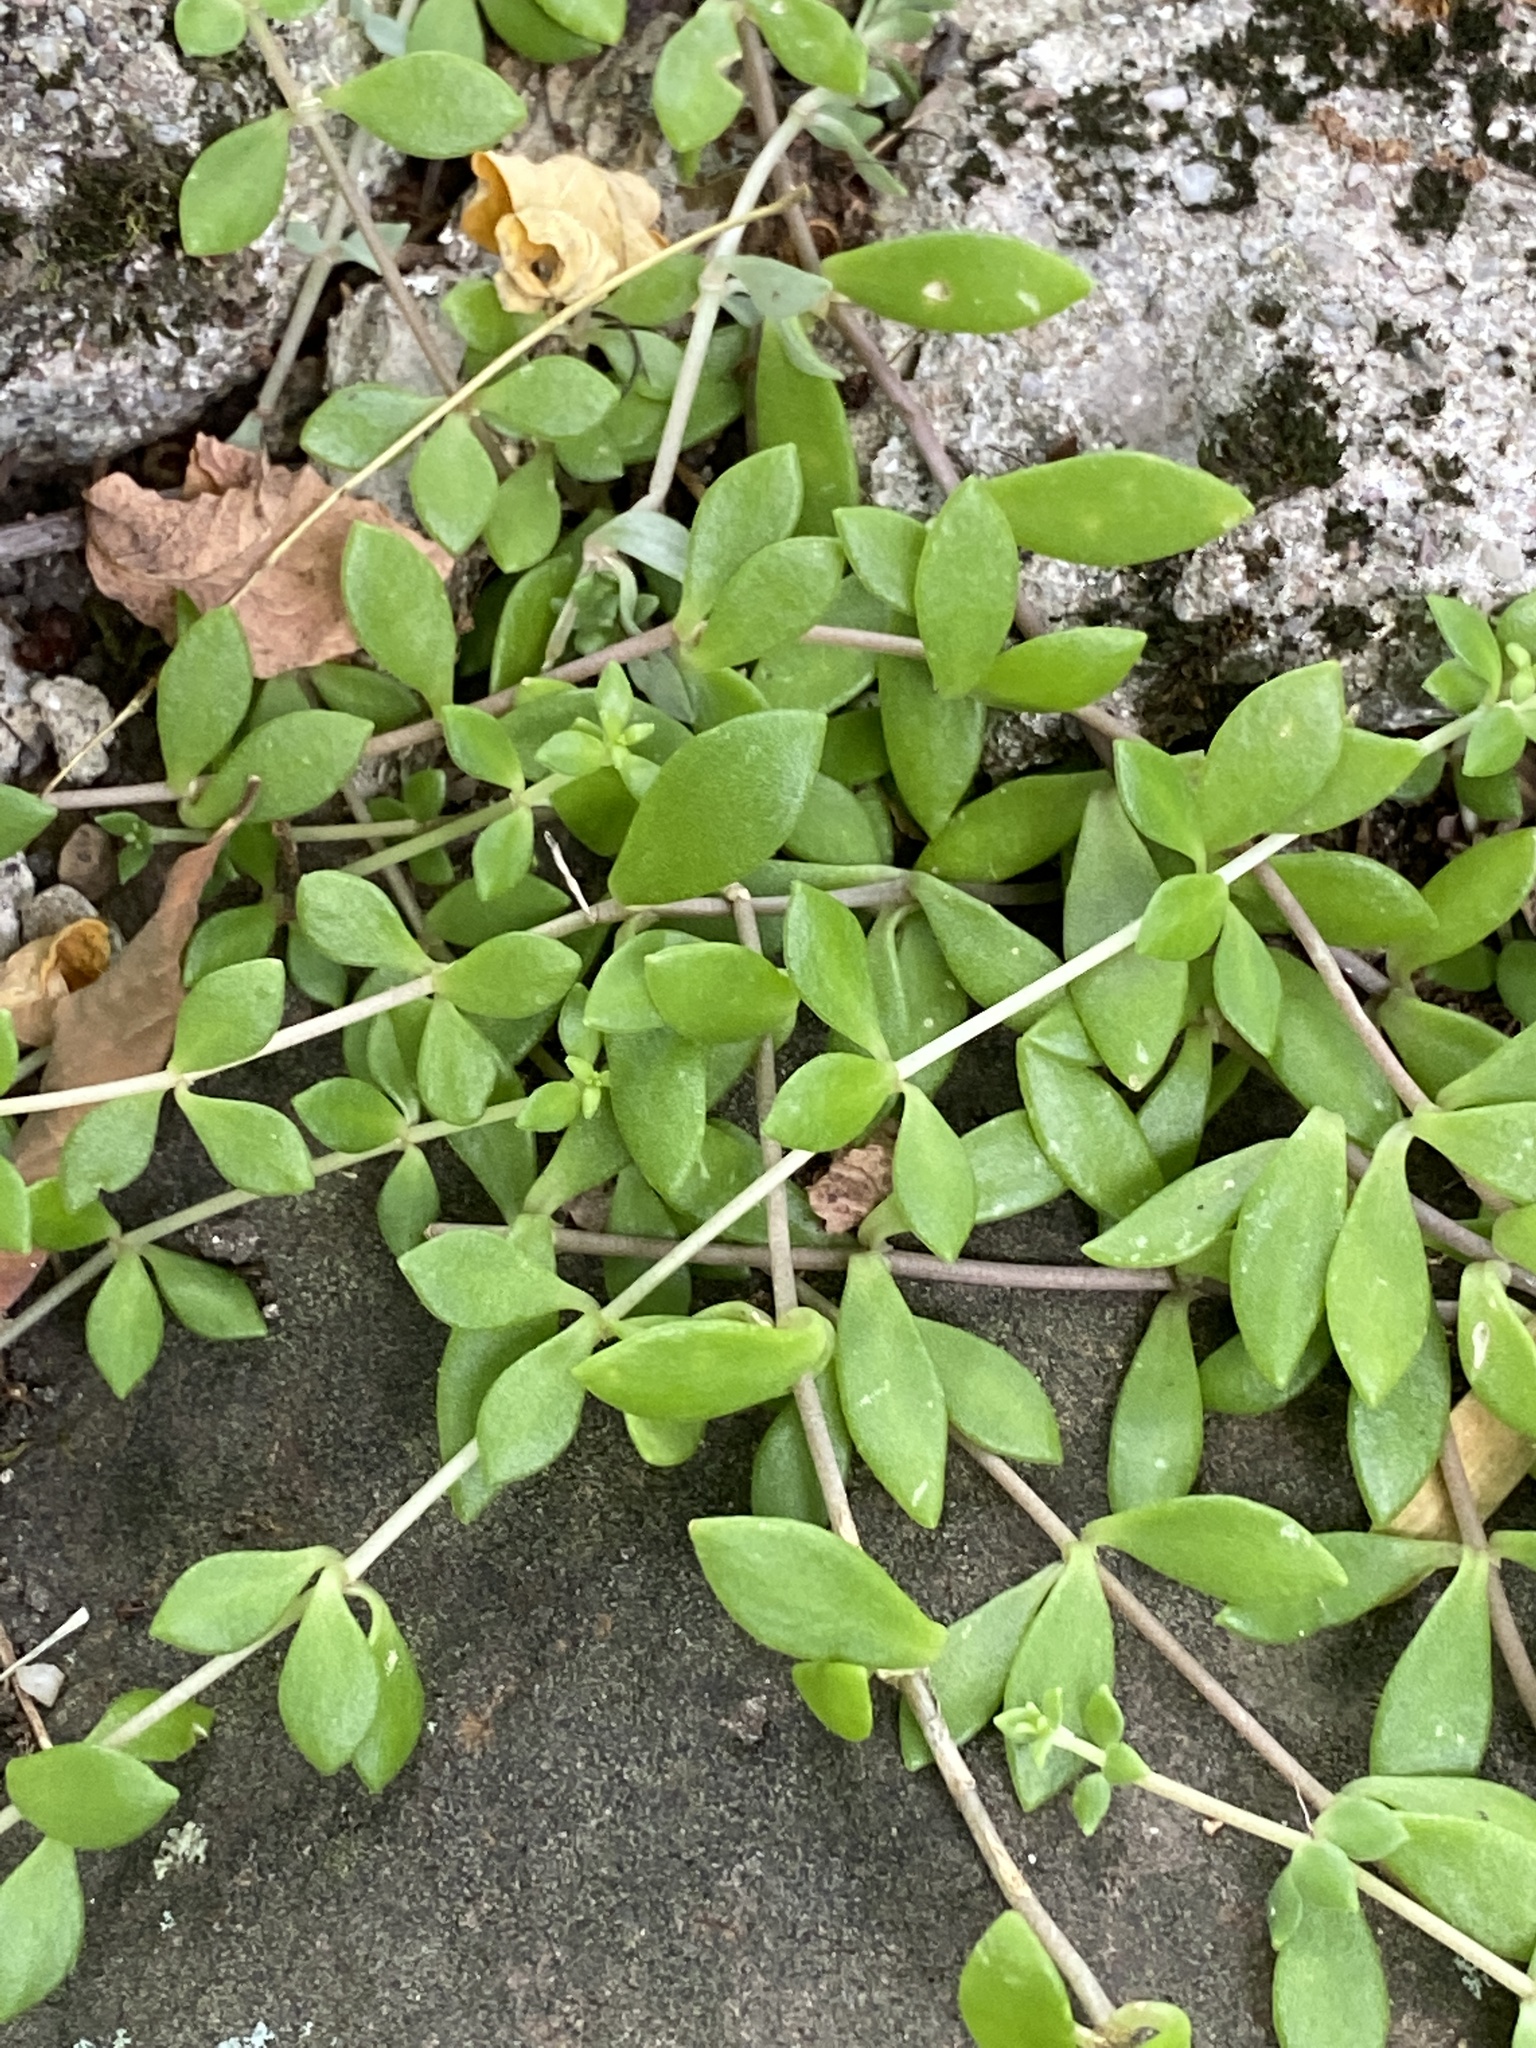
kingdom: Plantae
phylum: Tracheophyta
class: Magnoliopsida
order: Saxifragales
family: Crassulaceae
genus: Sedum
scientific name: Sedum sarmentosum
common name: Stringy stonecrop
